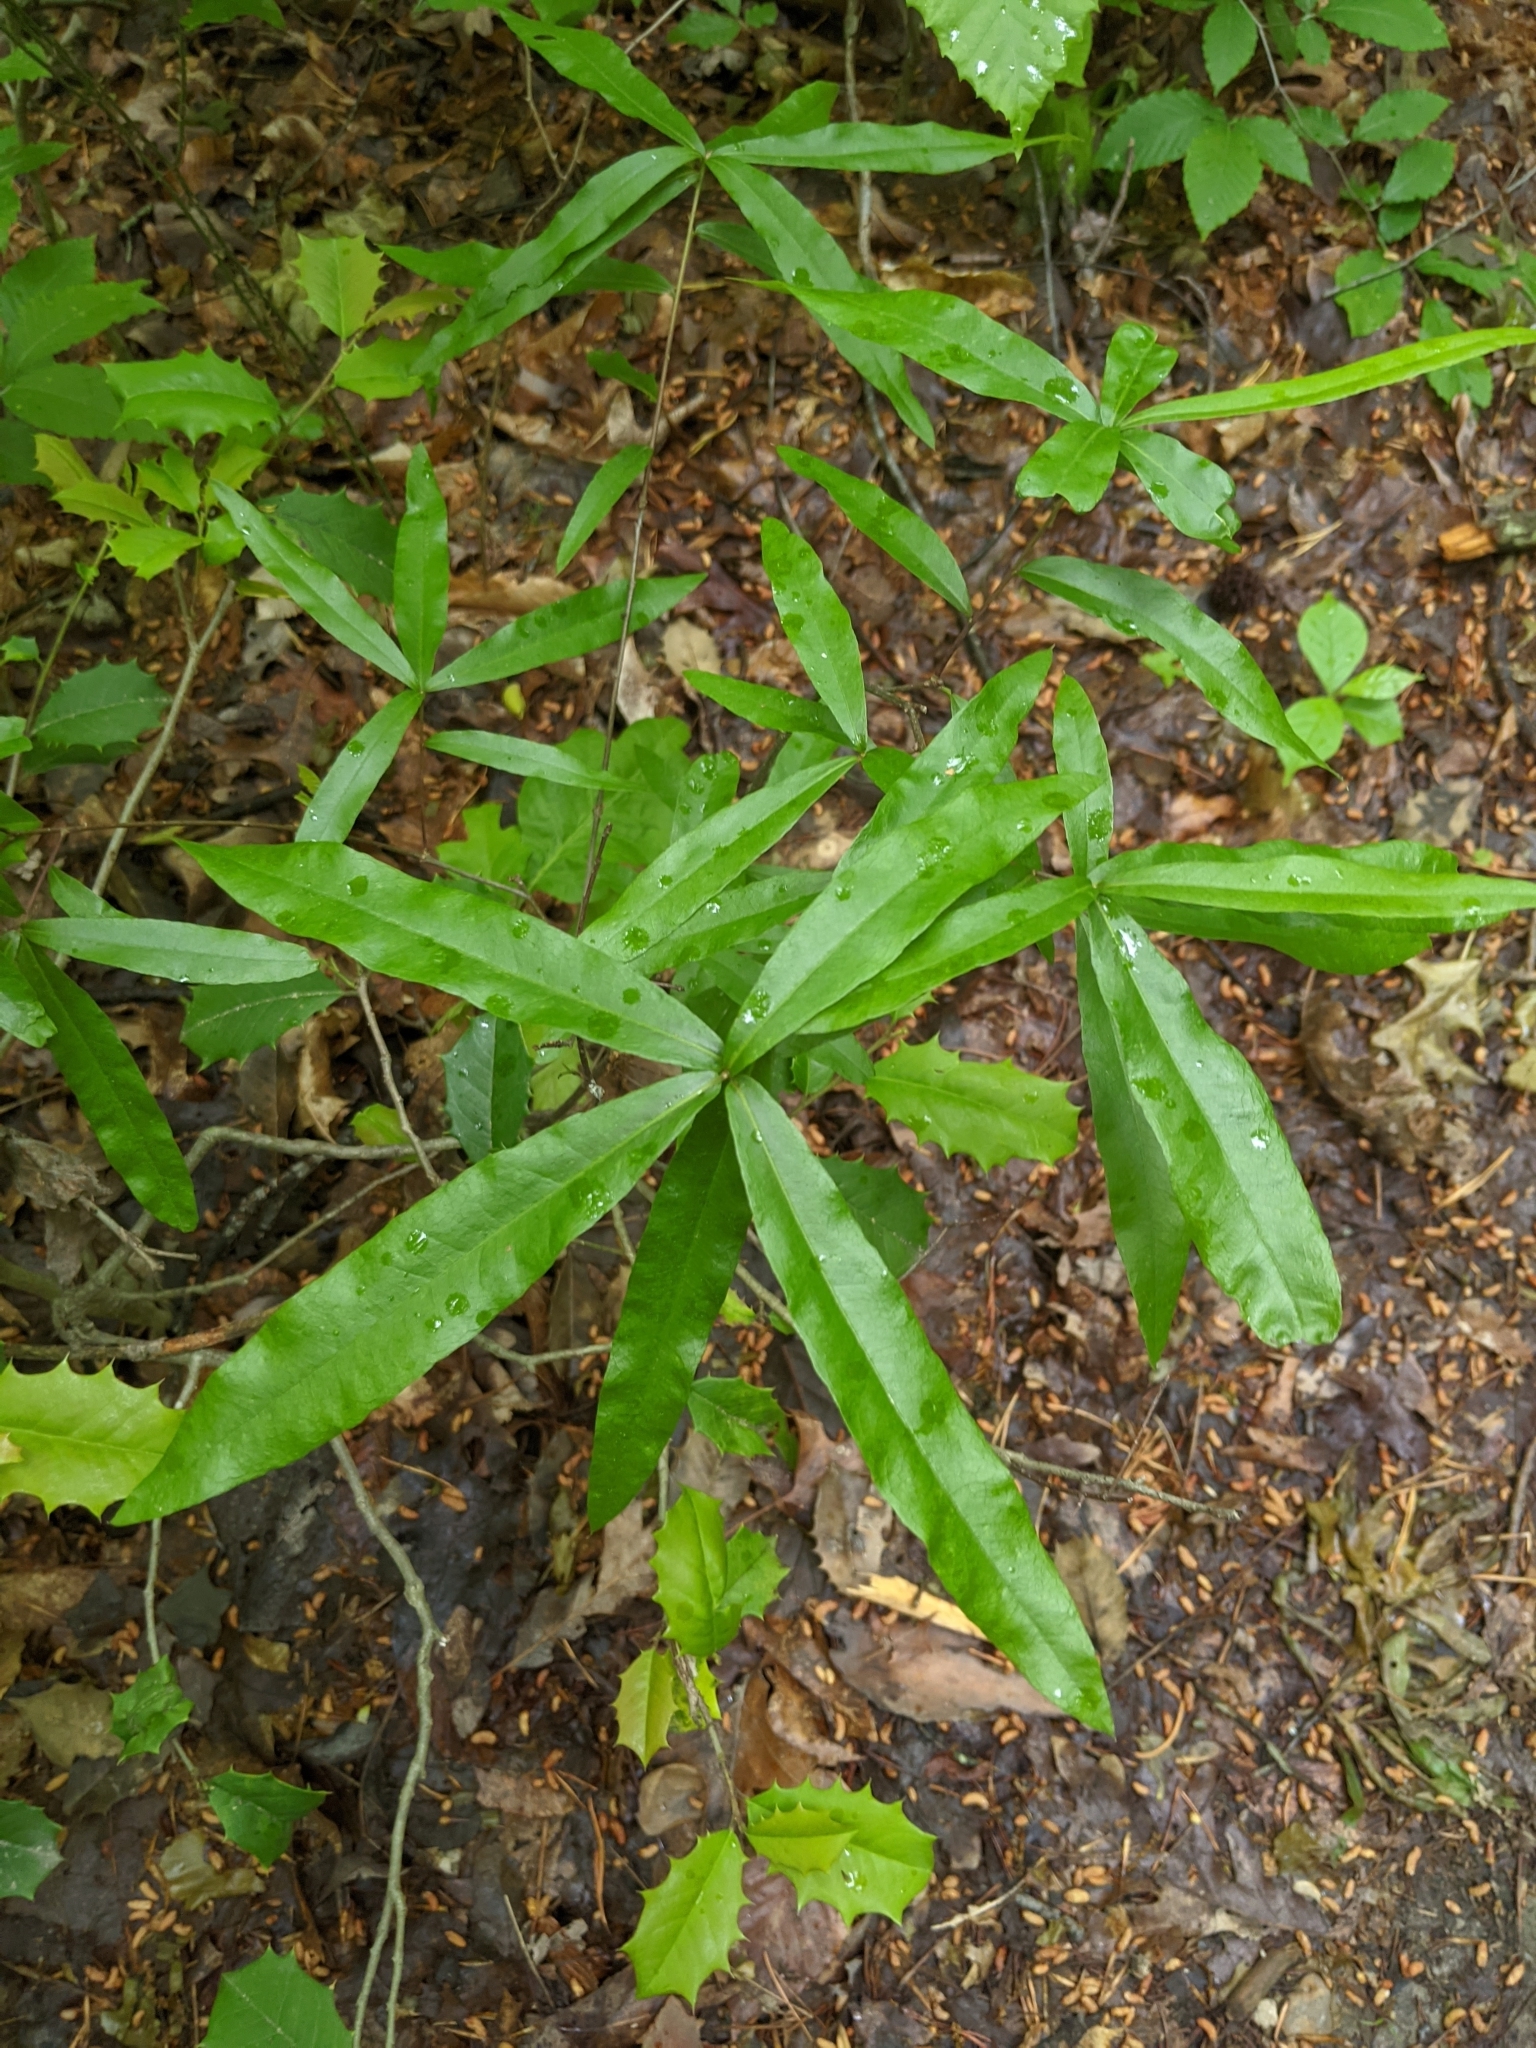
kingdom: Plantae
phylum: Tracheophyta
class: Magnoliopsida
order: Fagales
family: Fagaceae
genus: Quercus
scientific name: Quercus phellos
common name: Willow oak
